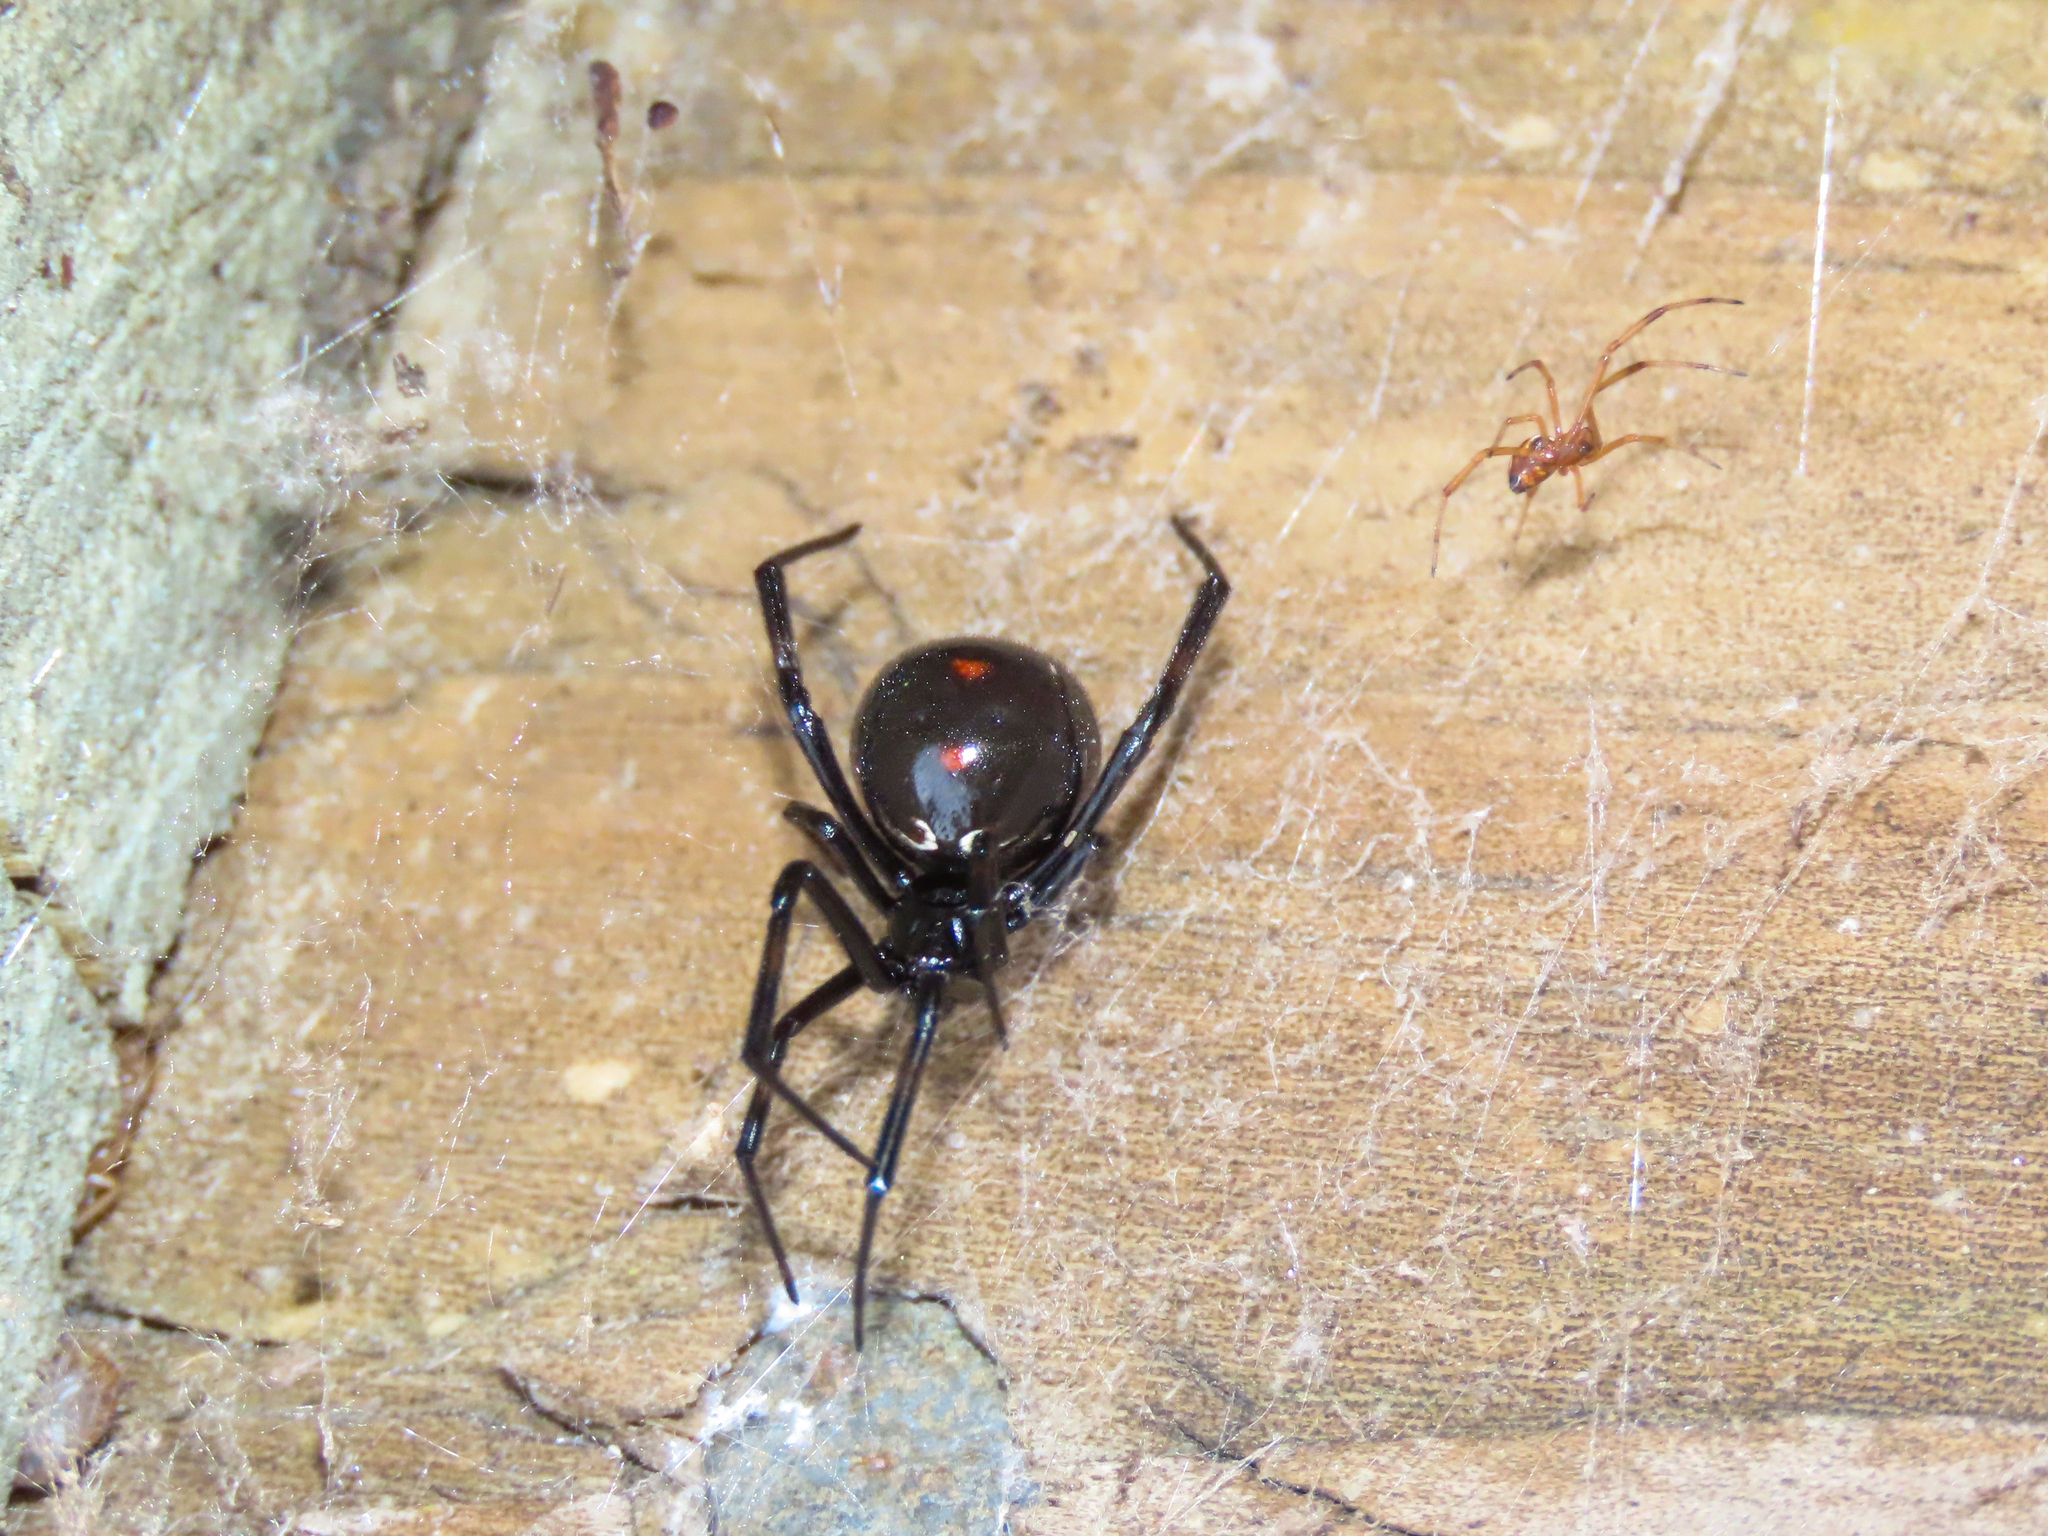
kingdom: Animalia
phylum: Arthropoda
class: Arachnida
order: Araneae
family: Theridiidae
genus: Latrodectus
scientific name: Latrodectus mactans
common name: Cobweb spiders
